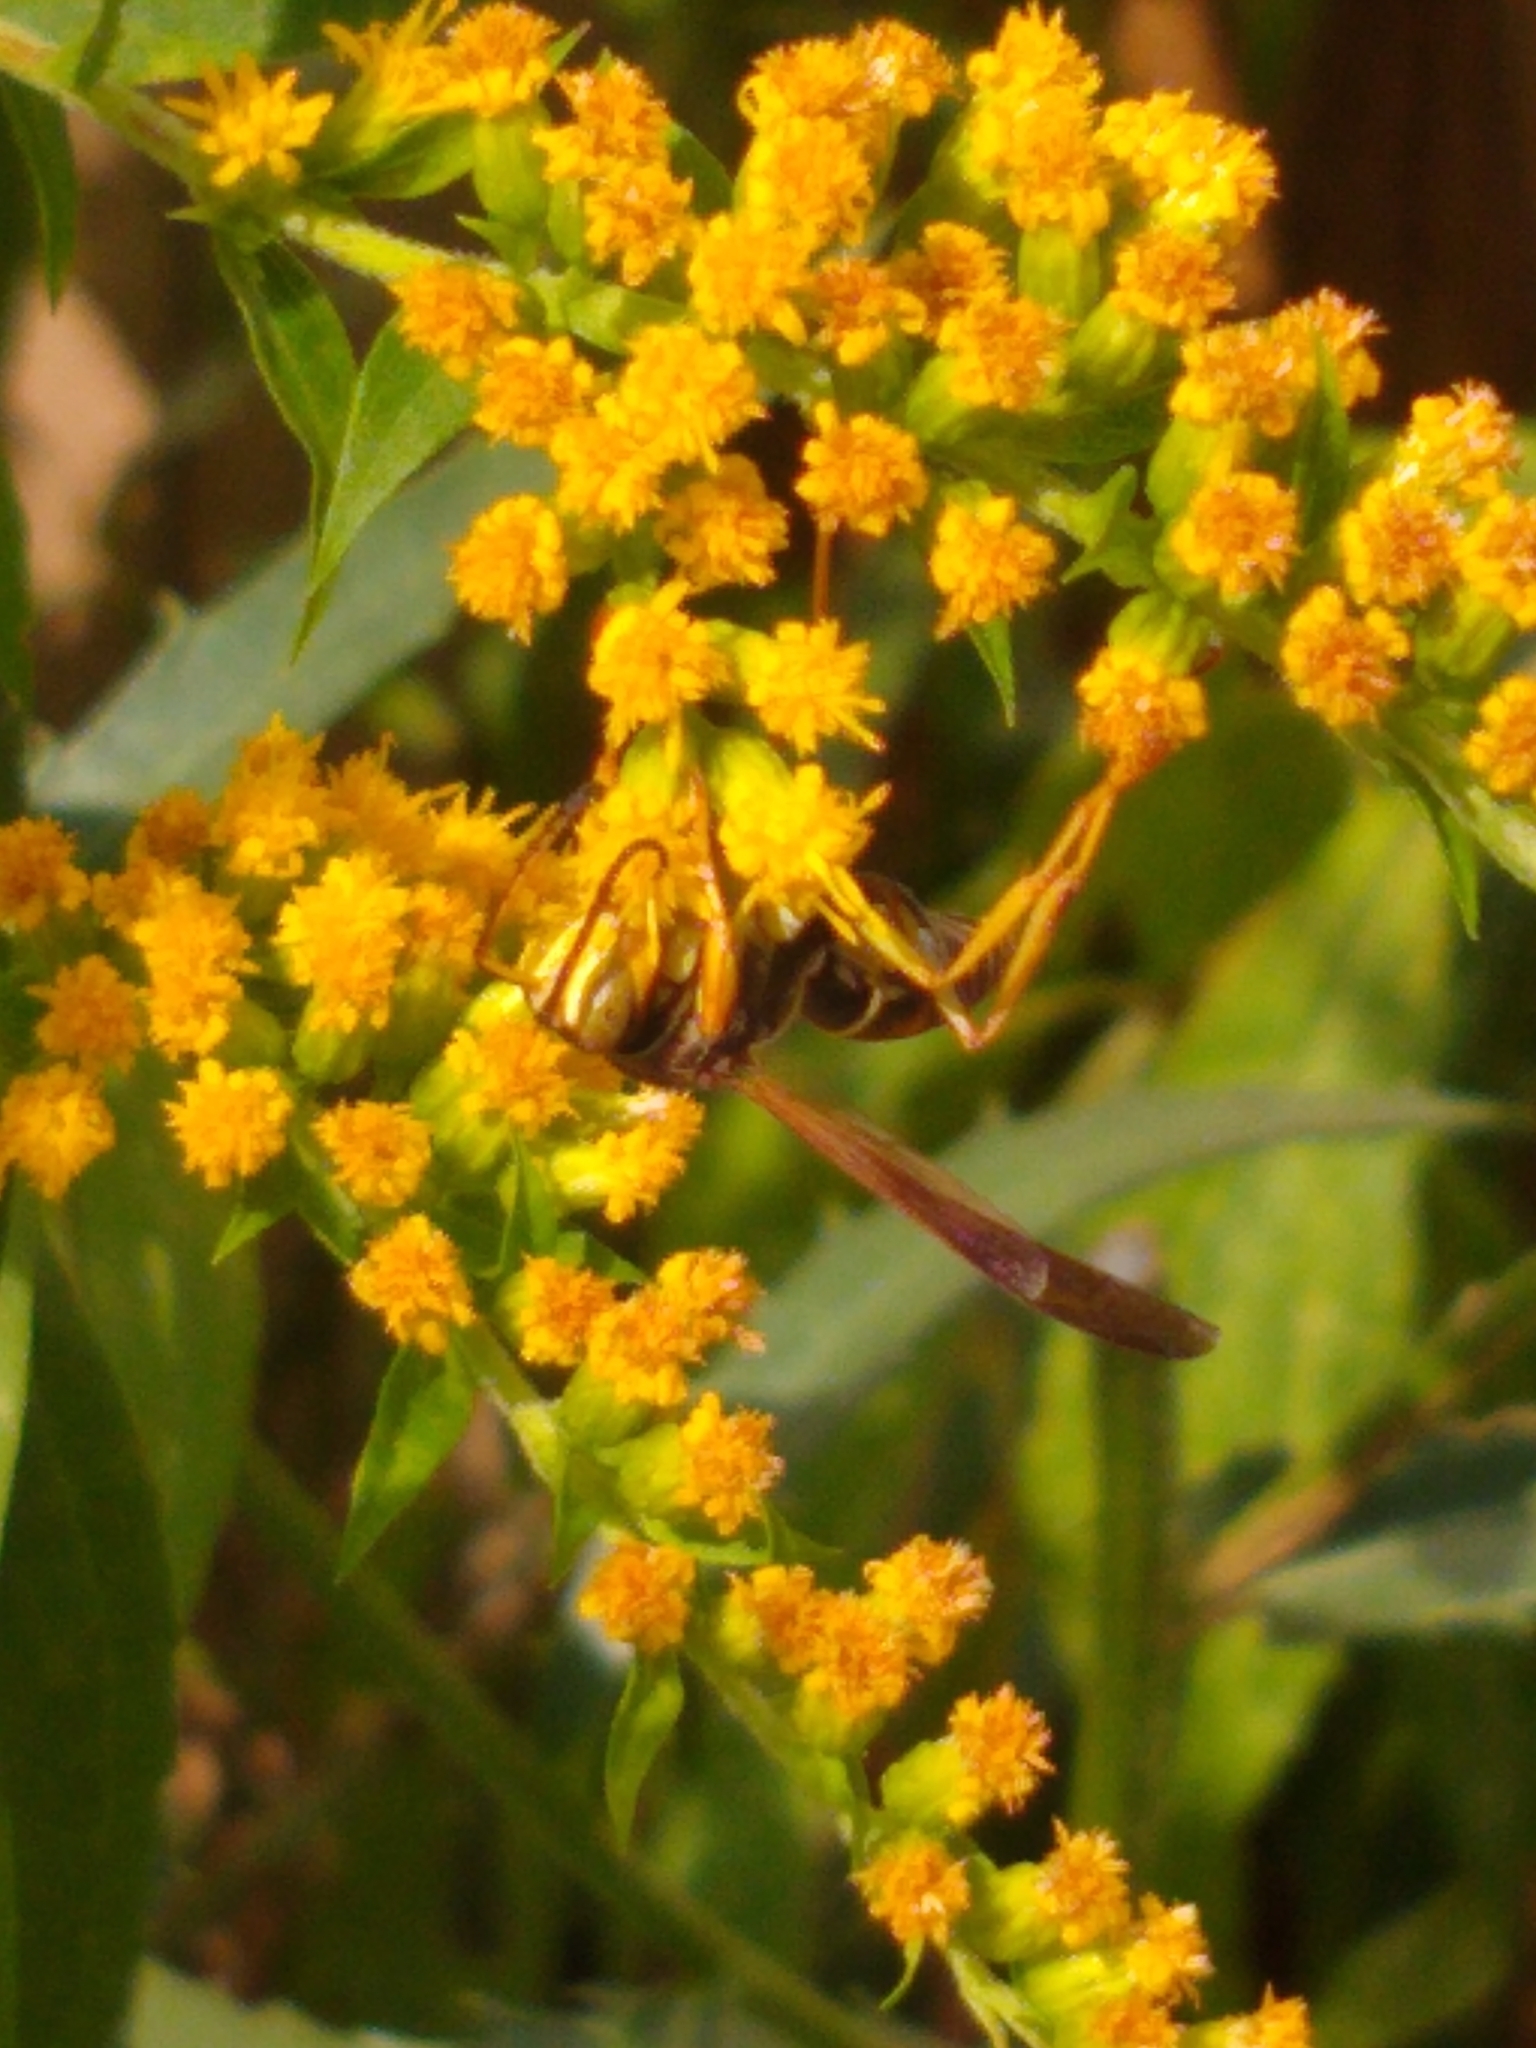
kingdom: Animalia
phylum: Arthropoda
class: Insecta
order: Hymenoptera
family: Eumenidae
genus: Polistes
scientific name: Polistes fuscatus
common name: Dark paper wasp
